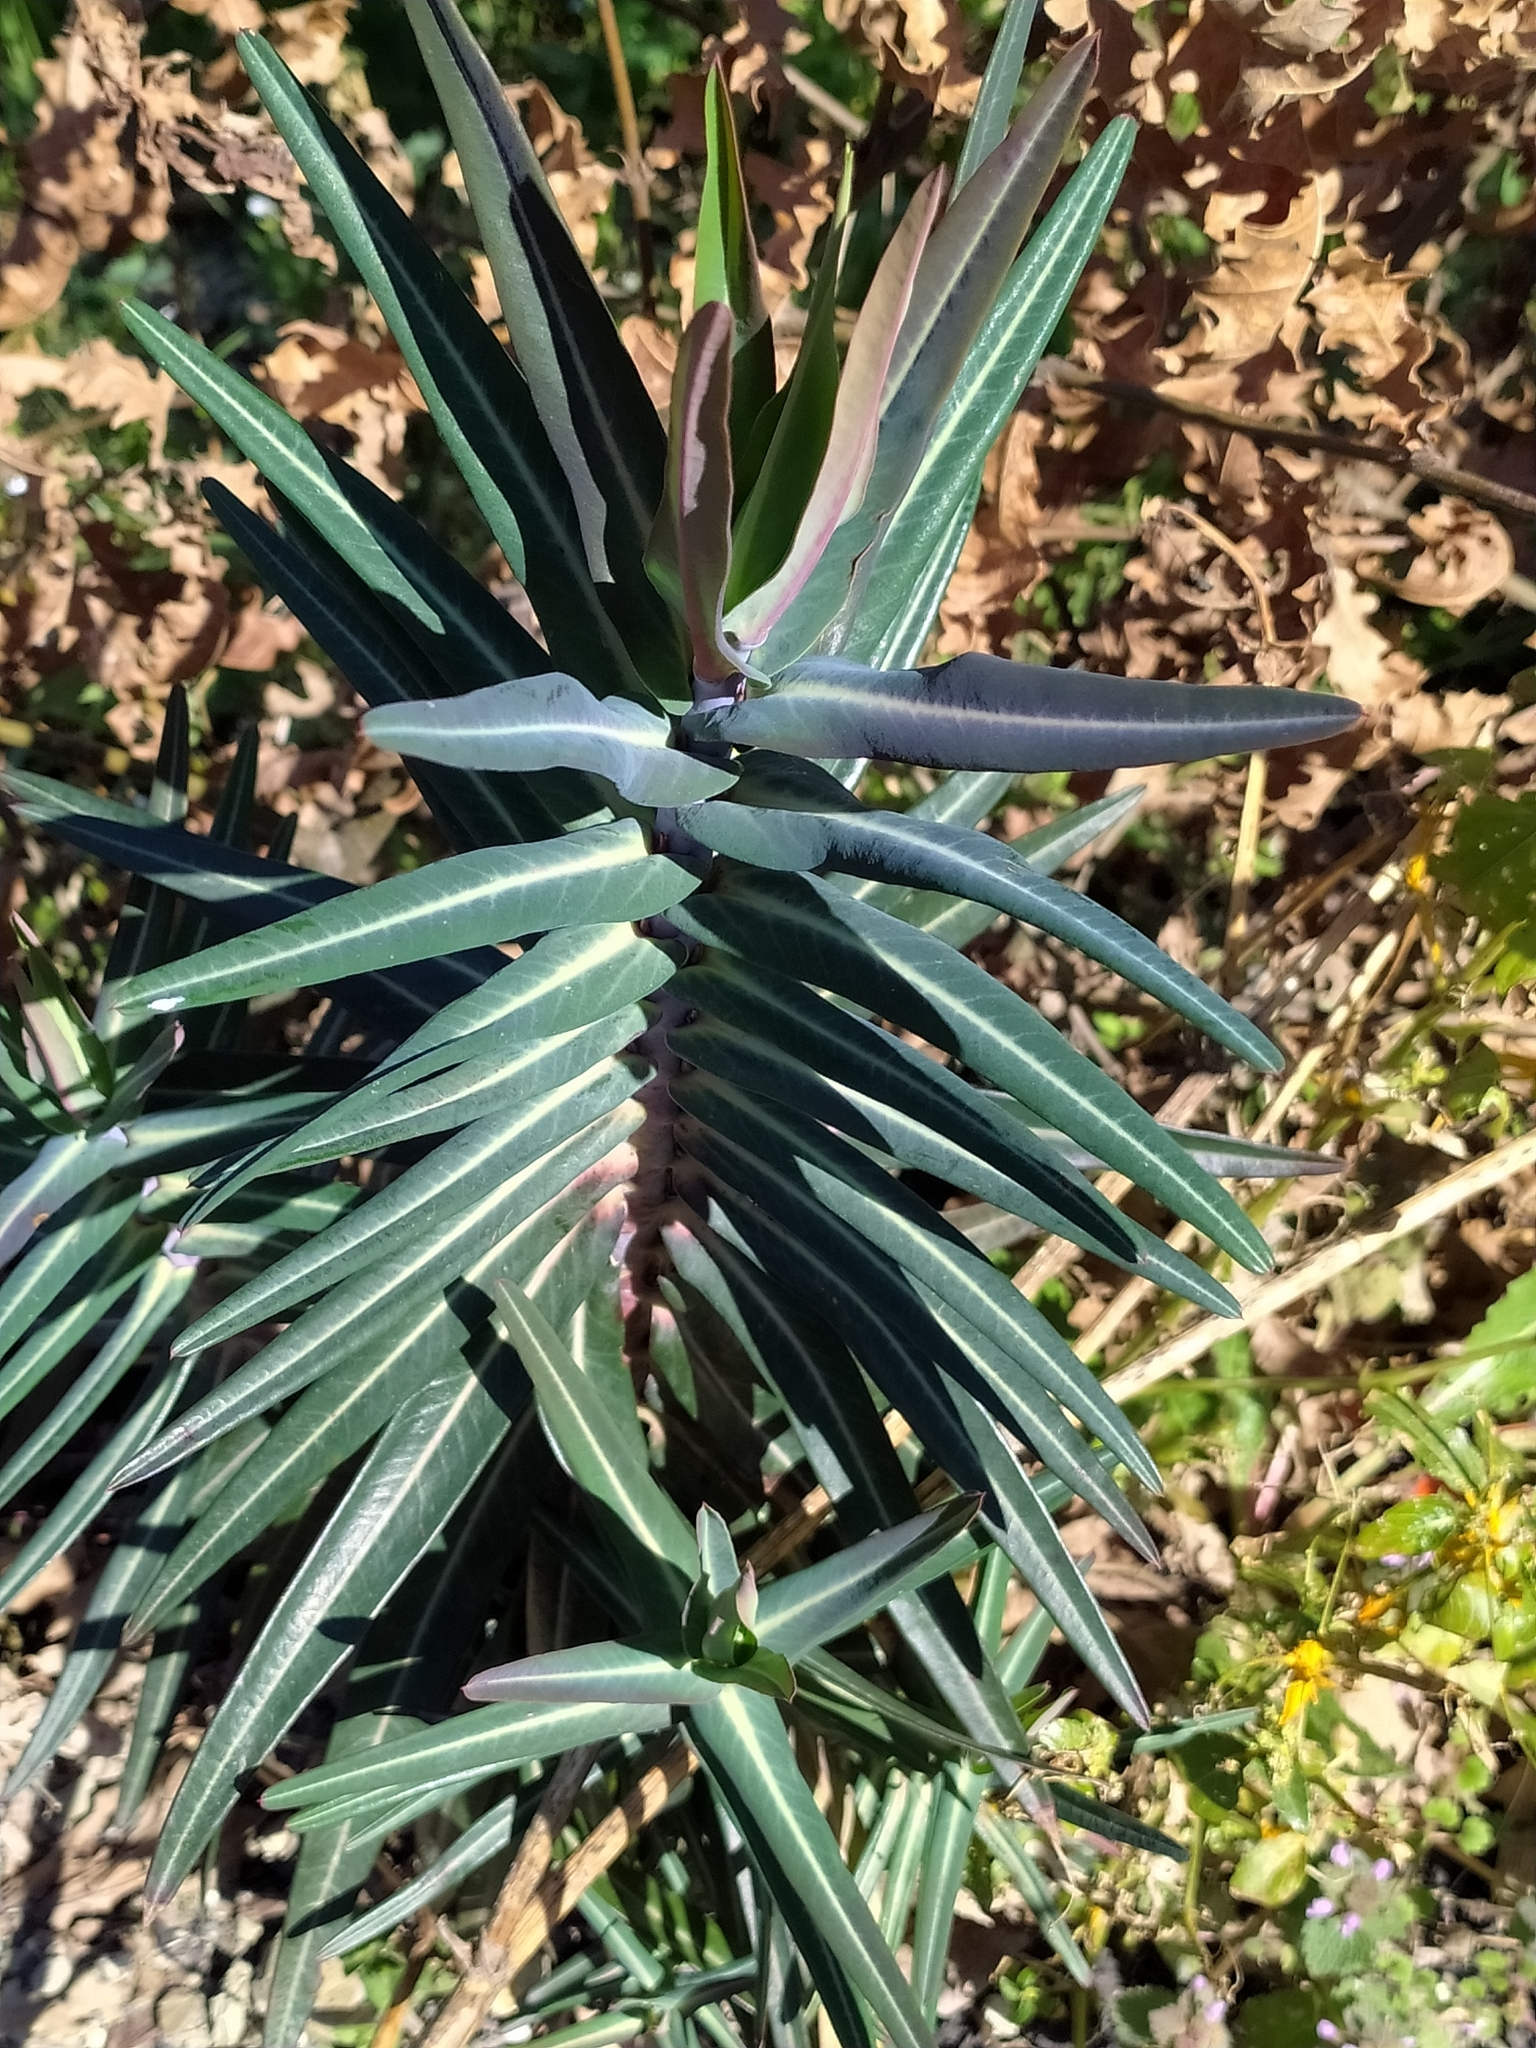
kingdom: Plantae
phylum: Tracheophyta
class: Magnoliopsida
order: Malpighiales
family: Euphorbiaceae
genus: Euphorbia
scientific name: Euphorbia lathyris
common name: Caper spurge
